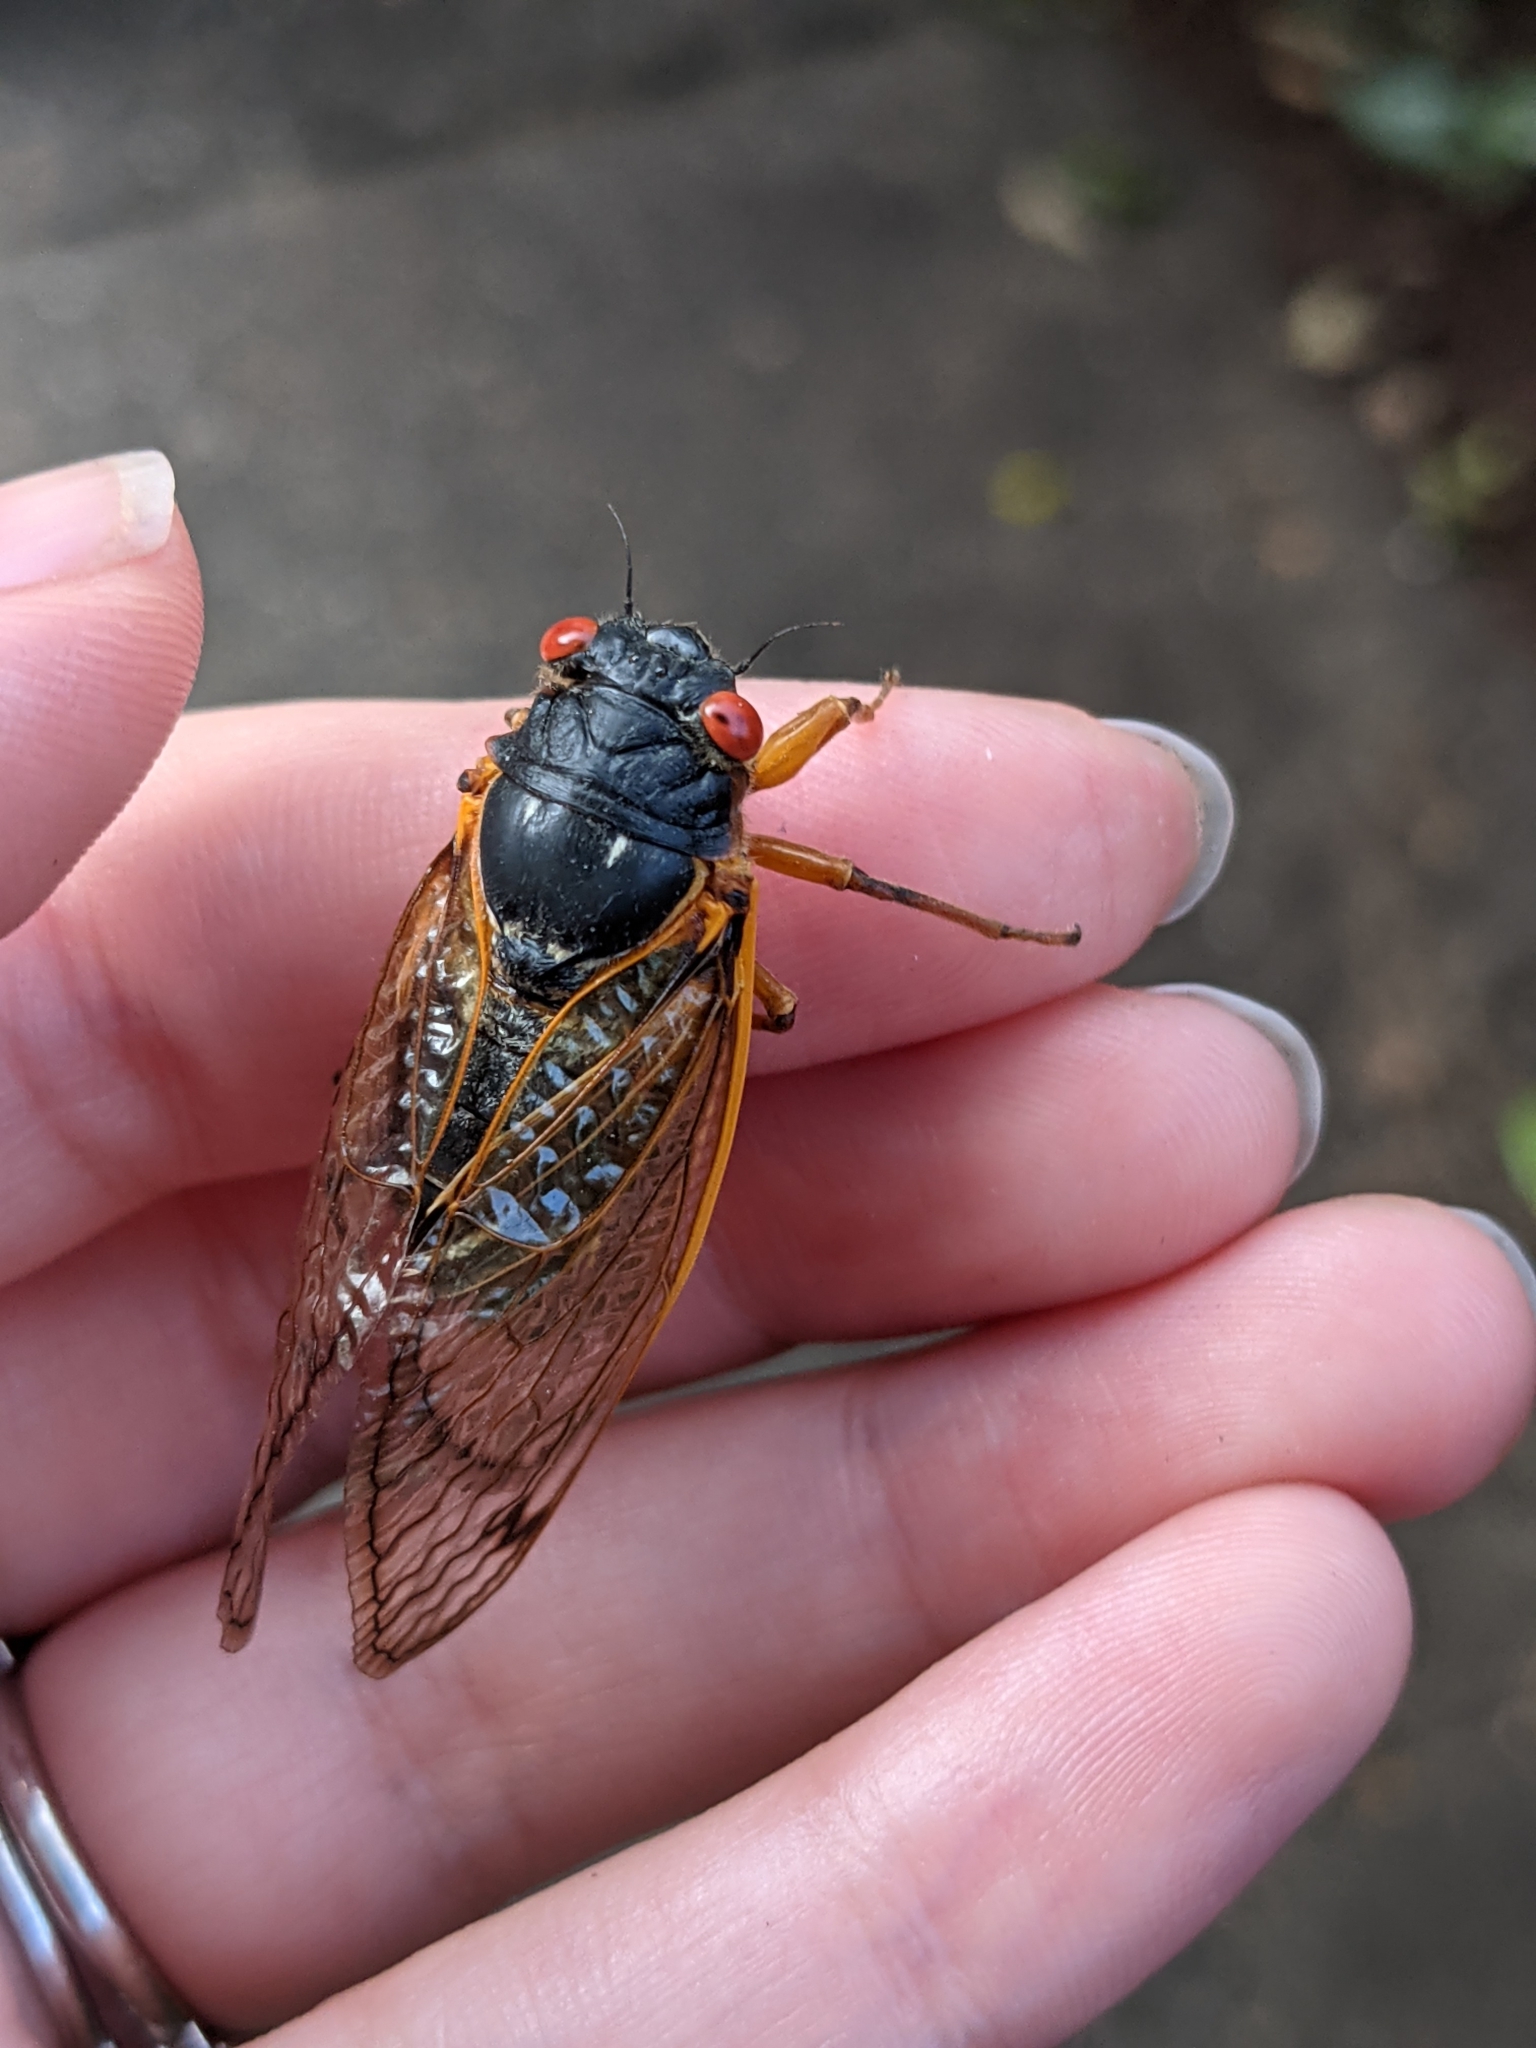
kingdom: Animalia
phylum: Arthropoda
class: Insecta
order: Hemiptera
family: Cicadidae
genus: Magicicada
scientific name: Magicicada septendecim
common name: Periodical cicada
